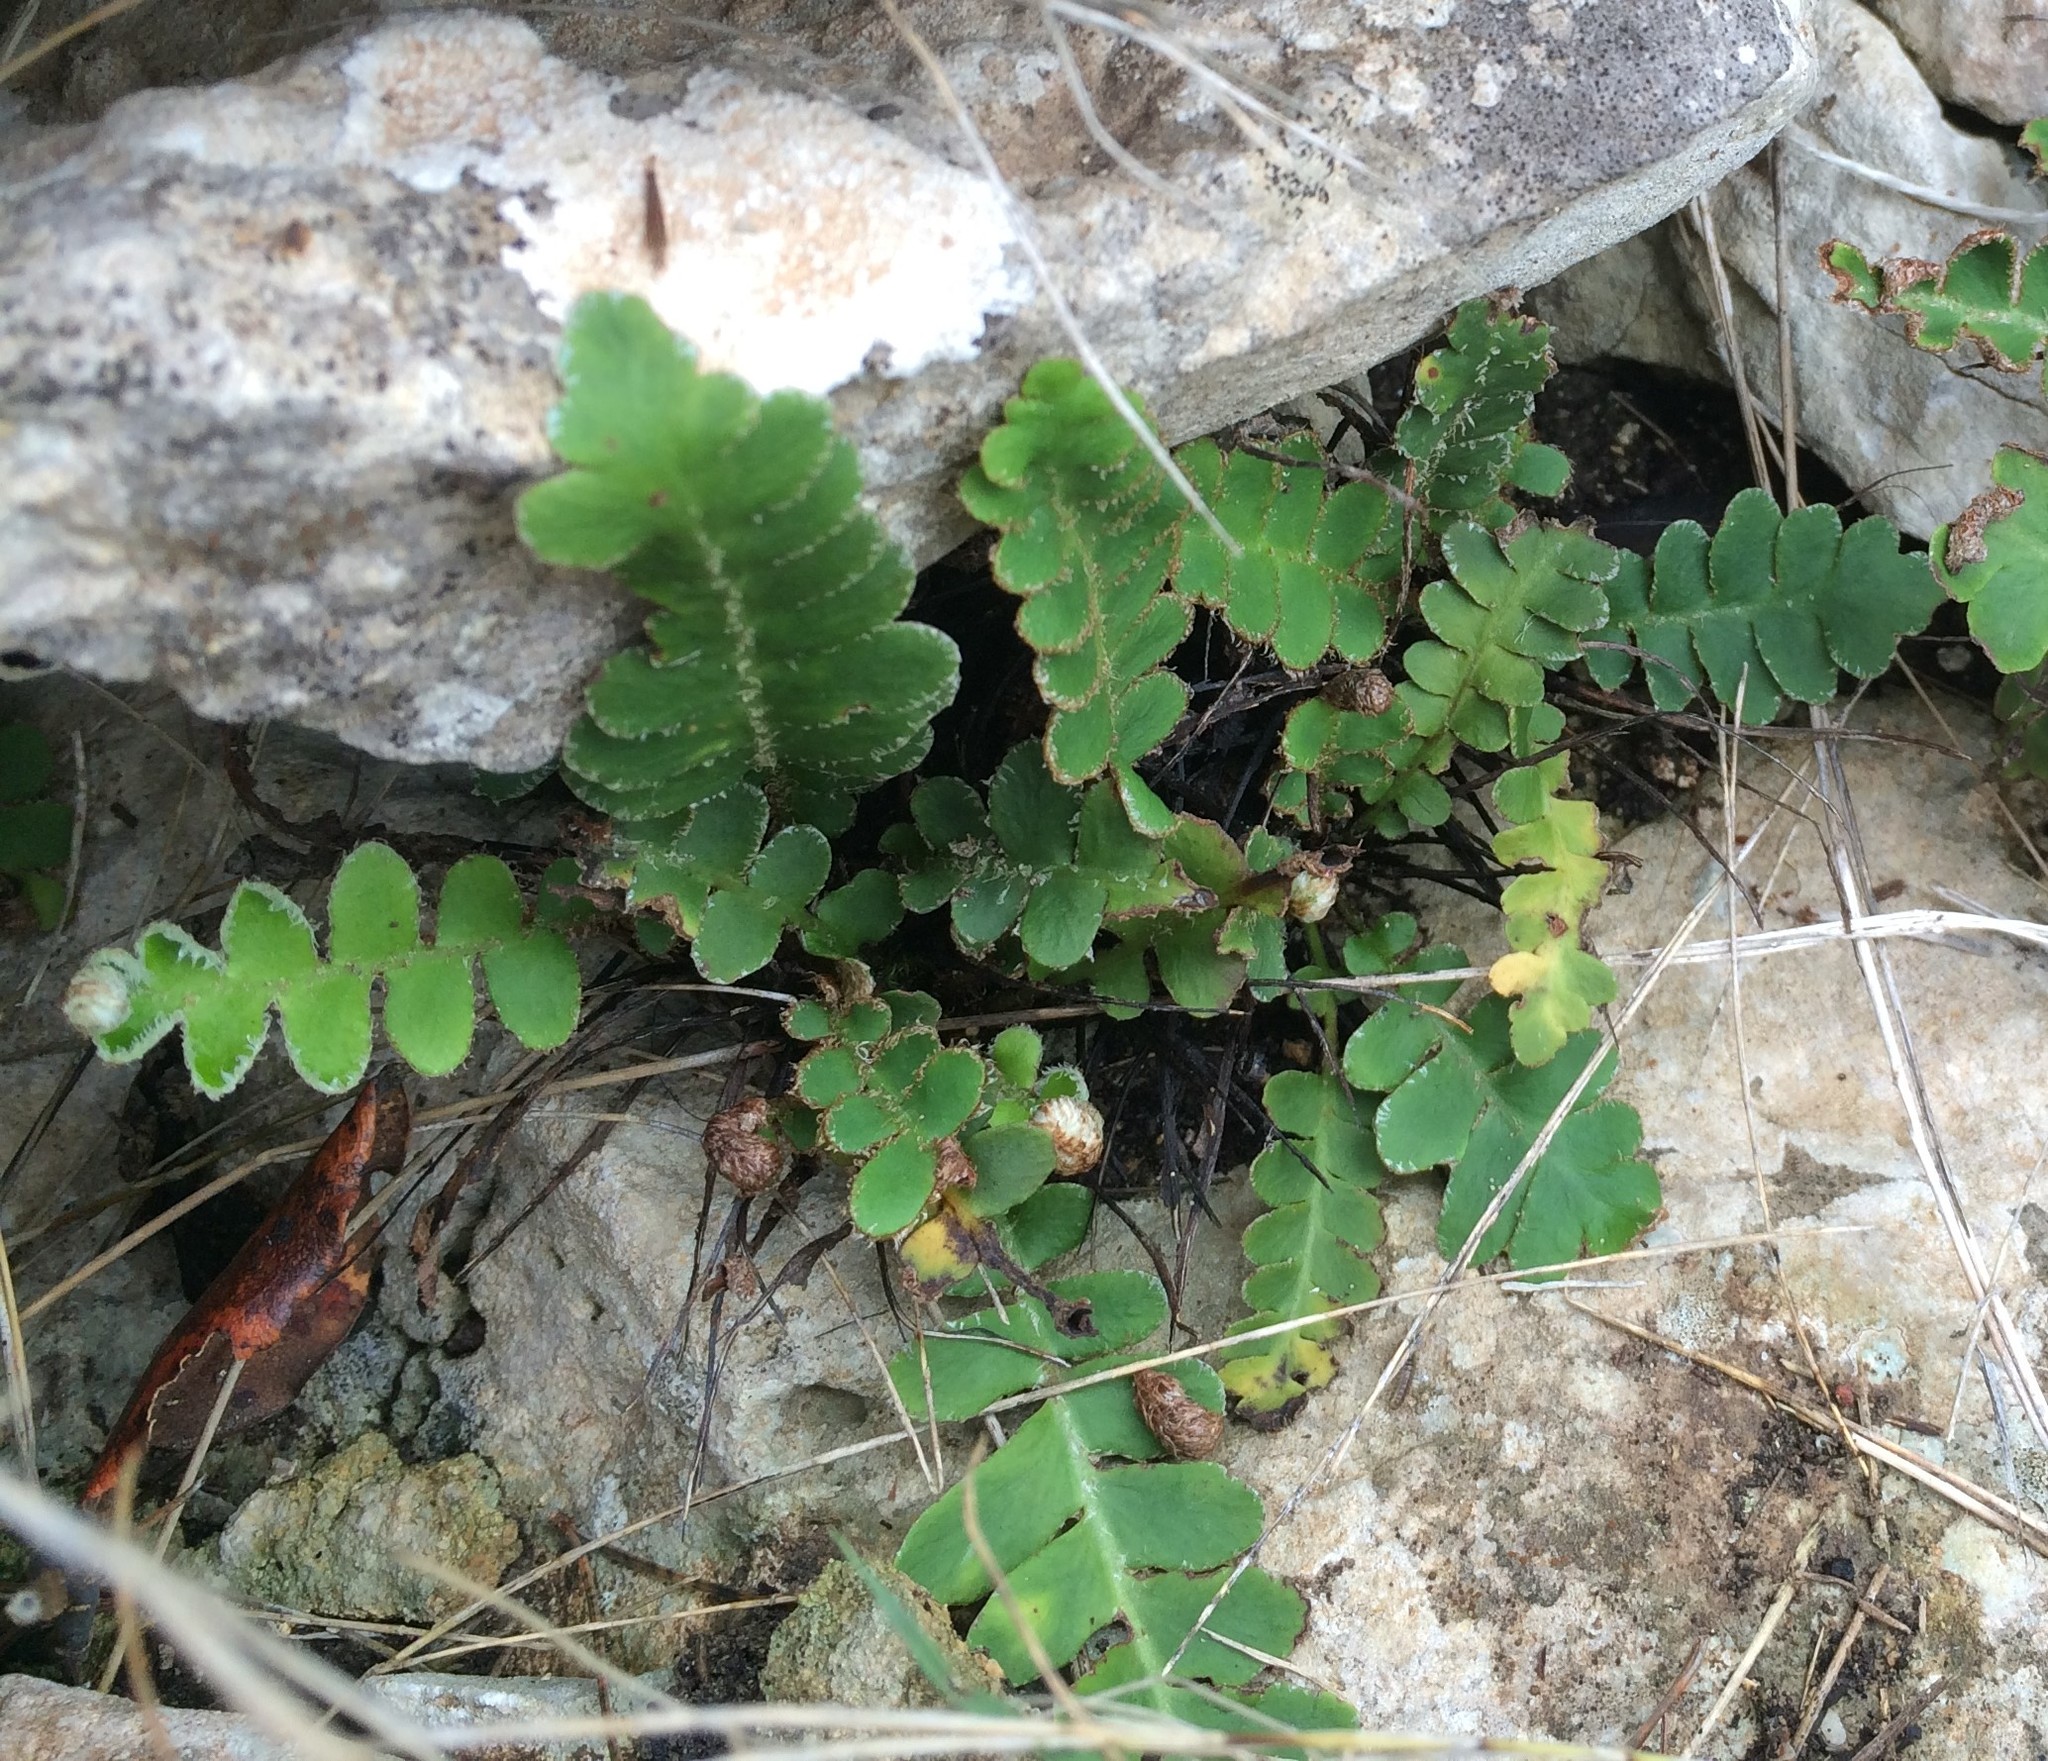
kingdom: Plantae
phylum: Tracheophyta
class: Polypodiopsida
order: Polypodiales
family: Aspleniaceae
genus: Asplenium
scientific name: Asplenium ceterach
